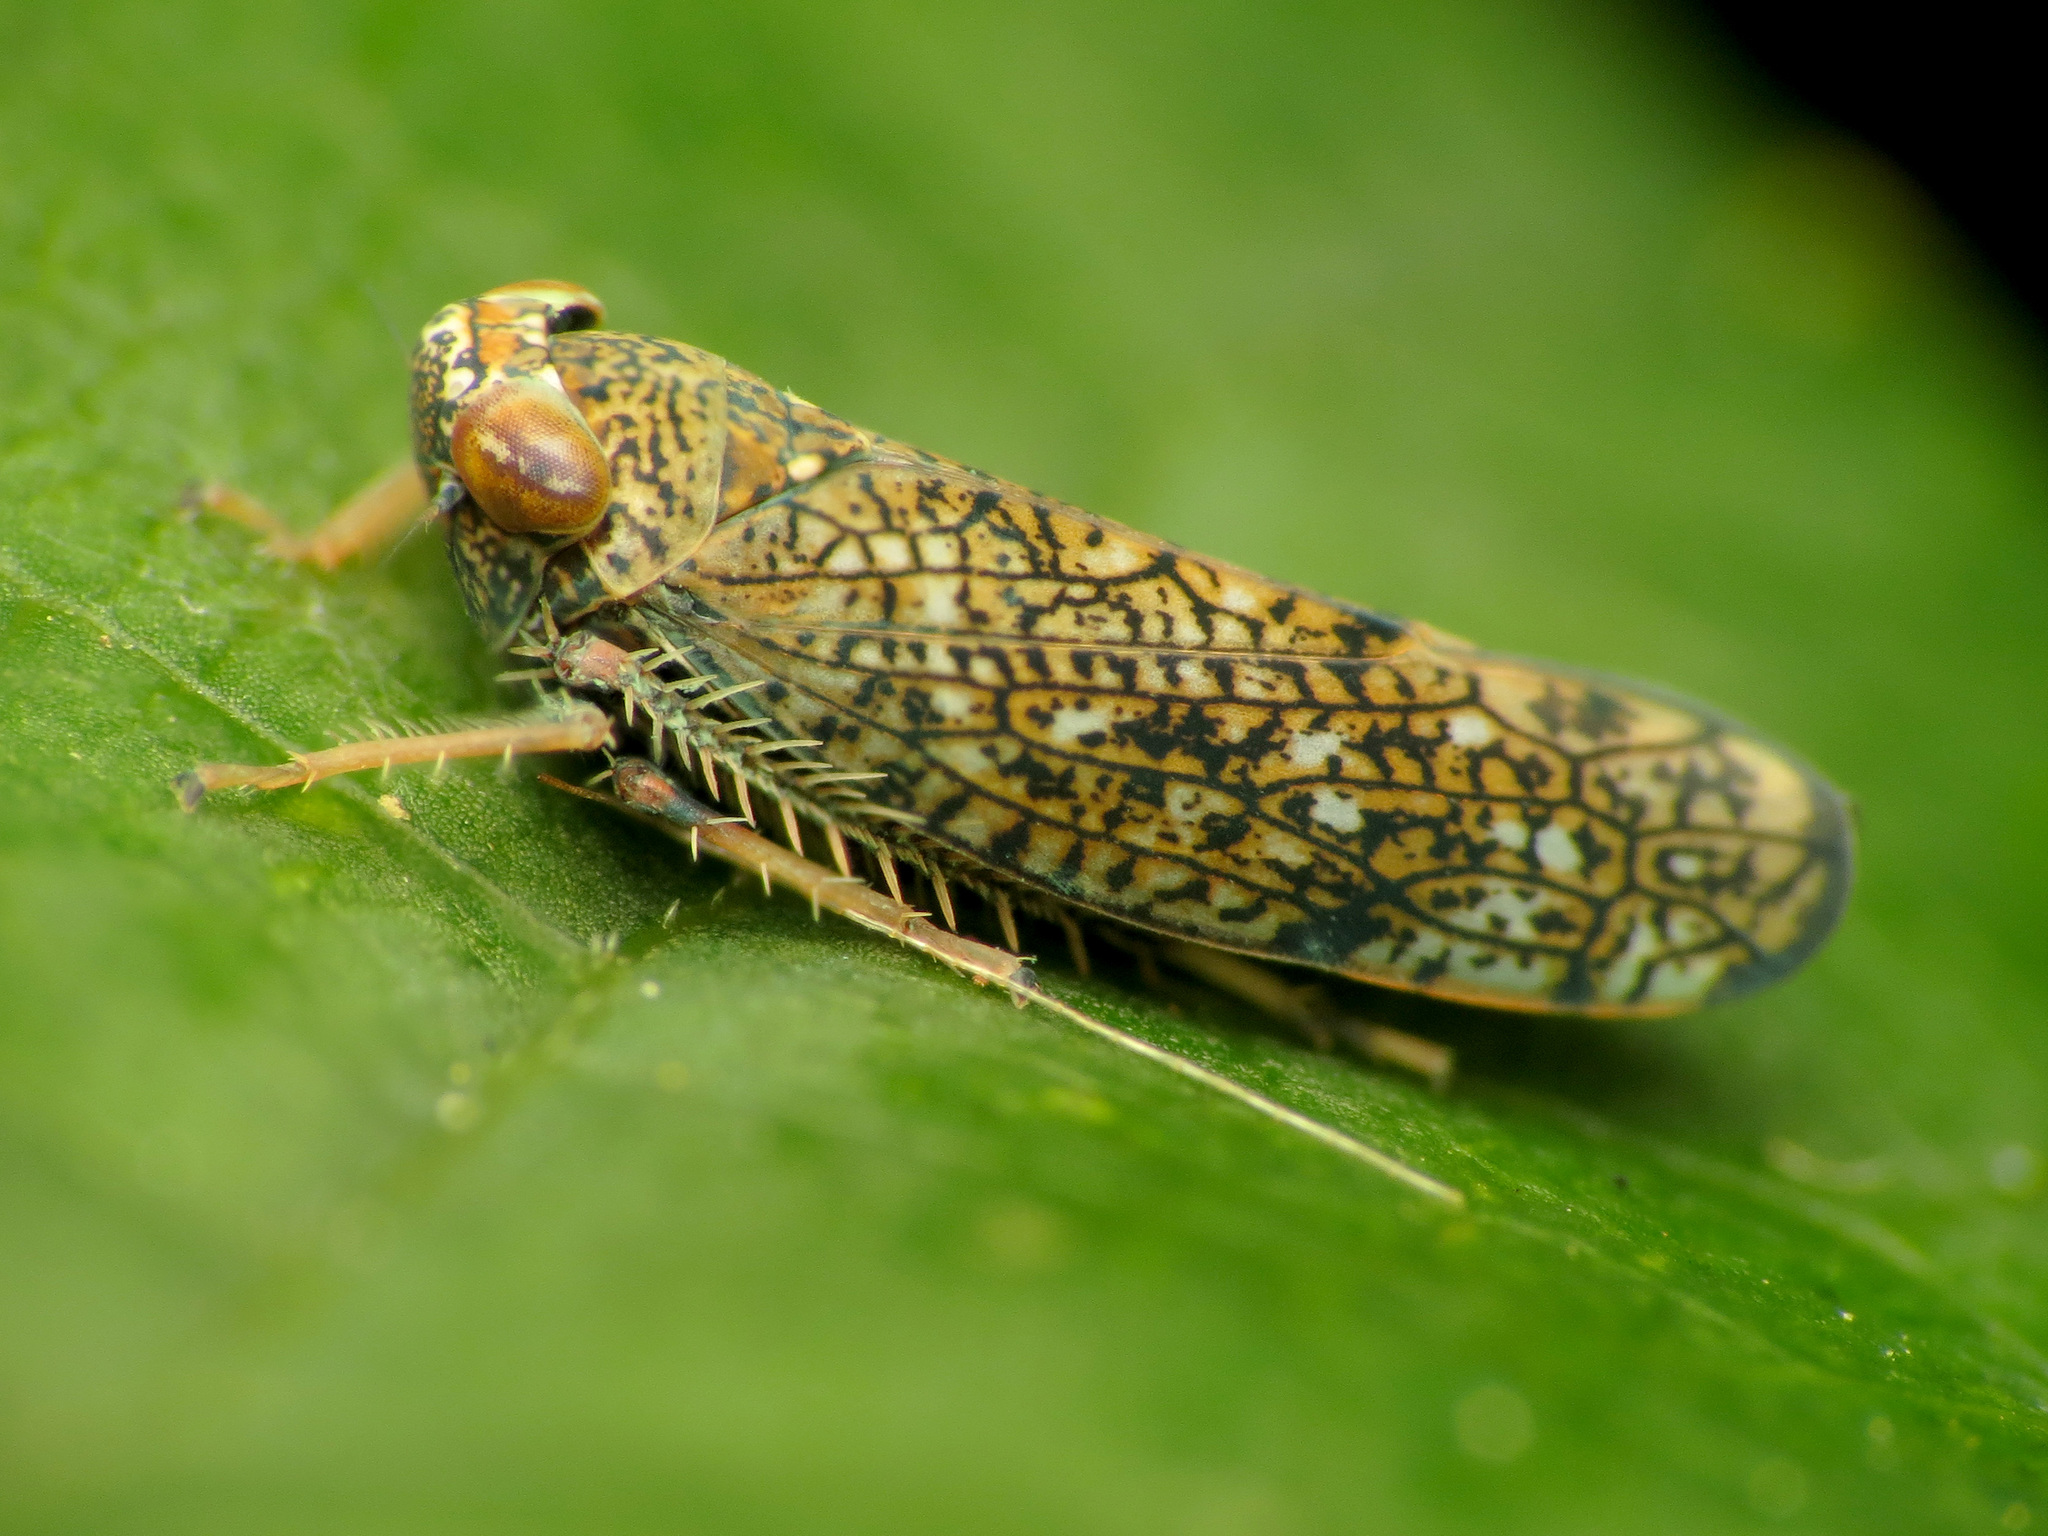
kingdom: Animalia
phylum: Arthropoda
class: Insecta
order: Hemiptera
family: Cicadellidae
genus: Orientus
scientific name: Orientus ishidae
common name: Japanese leafhopper
